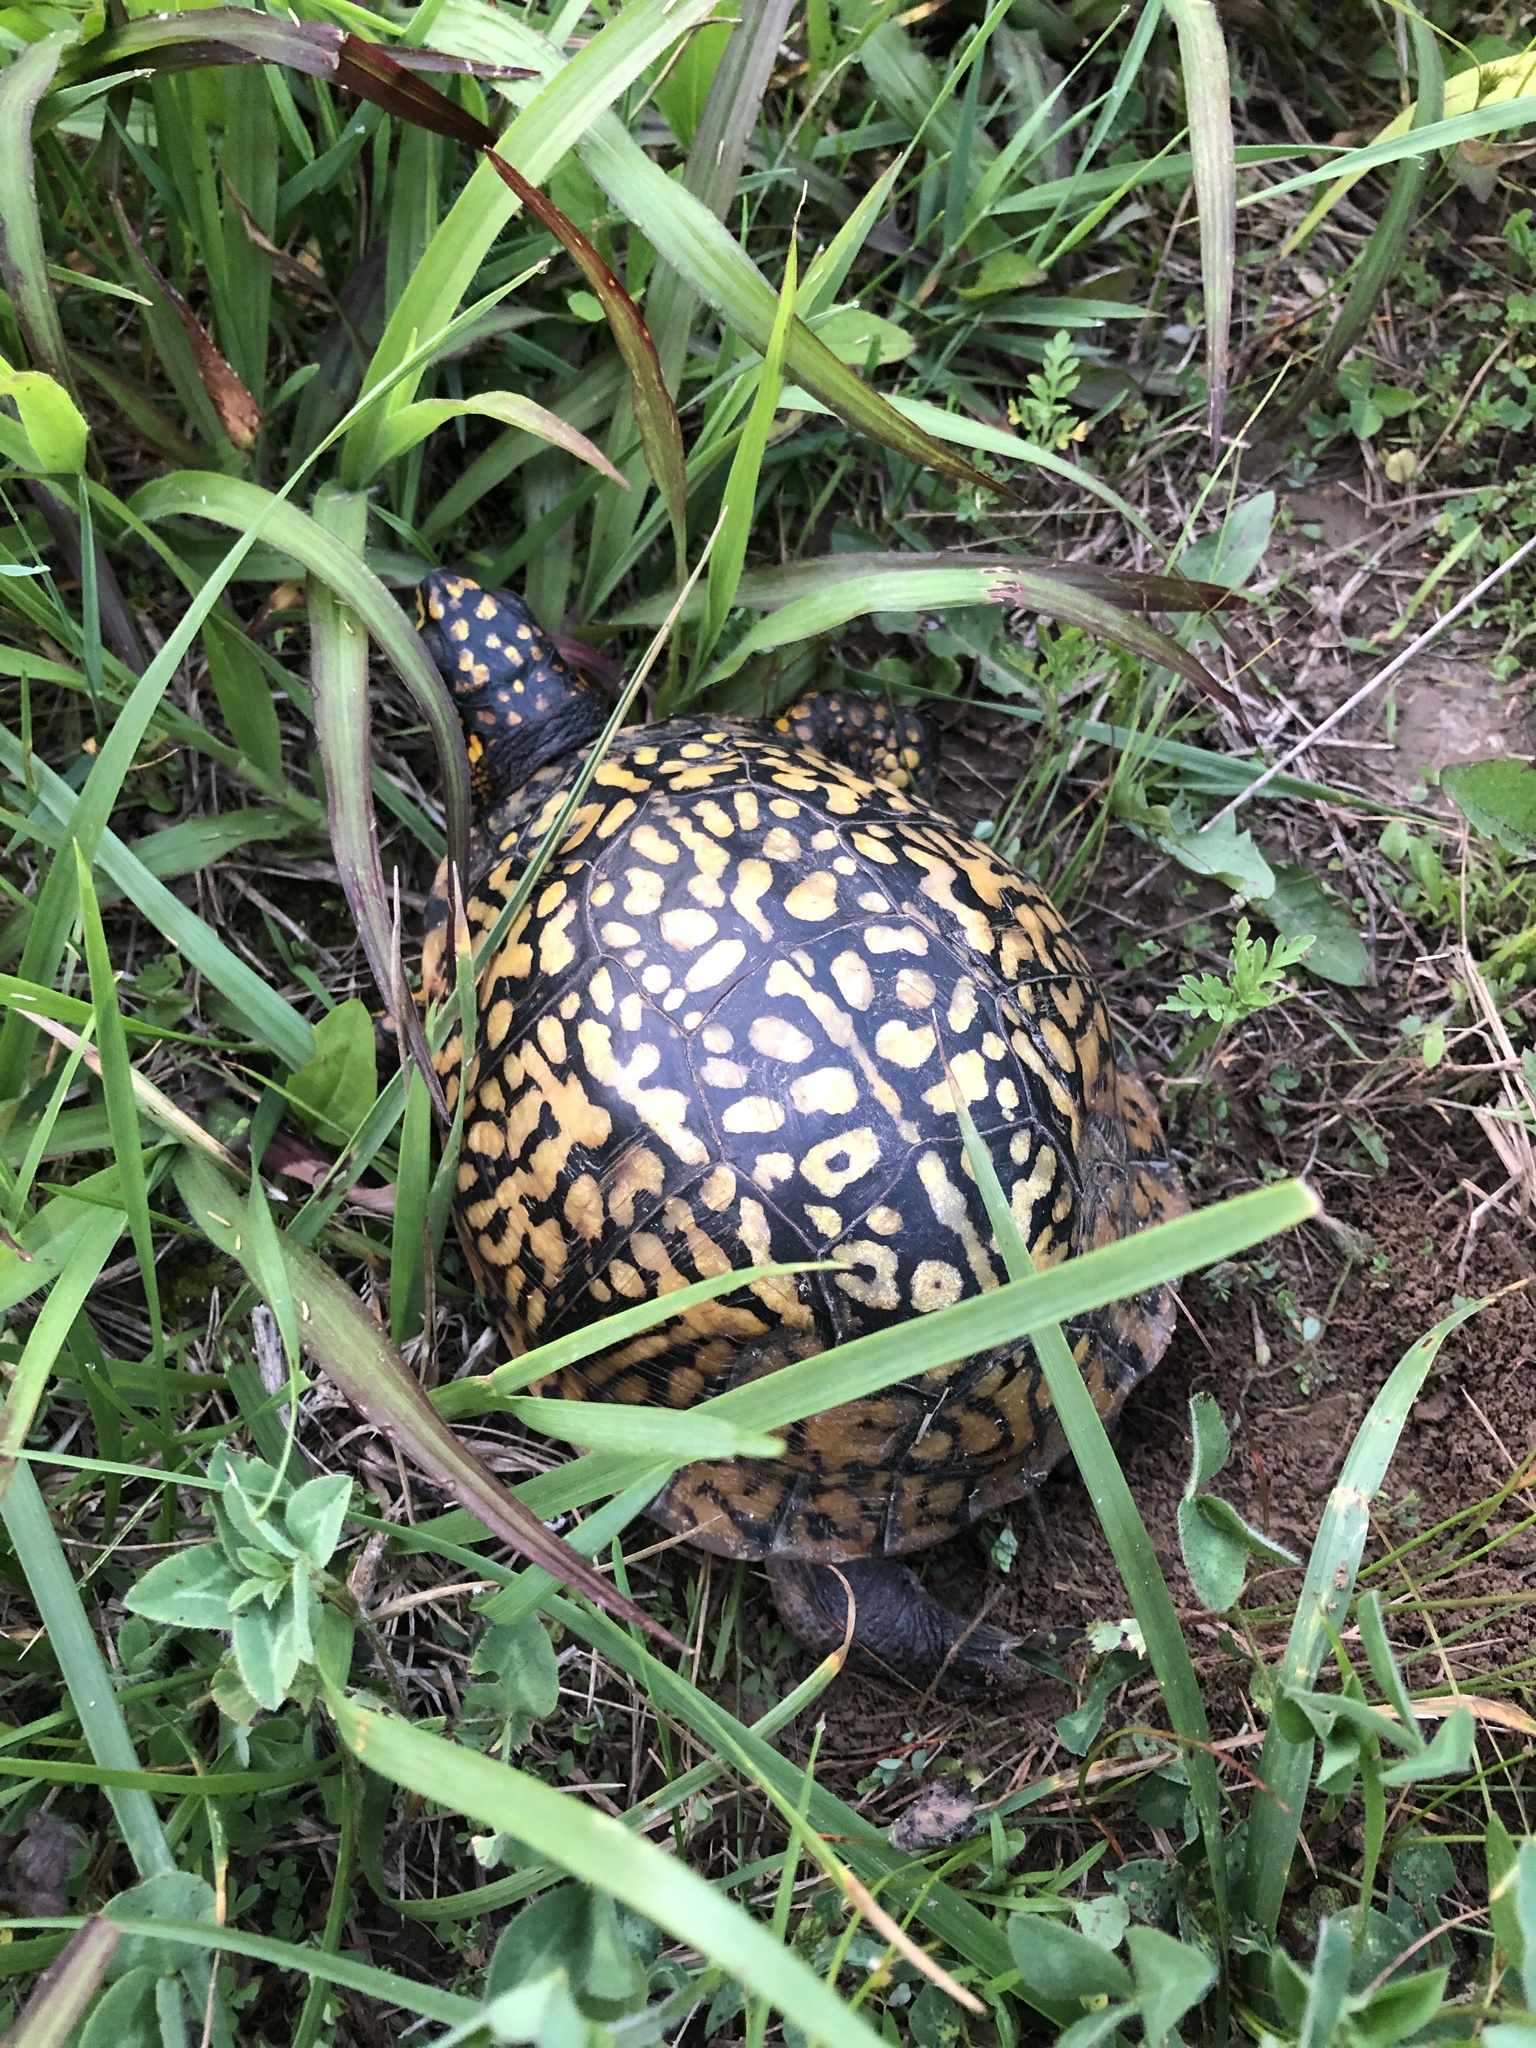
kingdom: Animalia
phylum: Chordata
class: Testudines
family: Emydidae
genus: Terrapene
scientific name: Terrapene carolina
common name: Common box turtle
